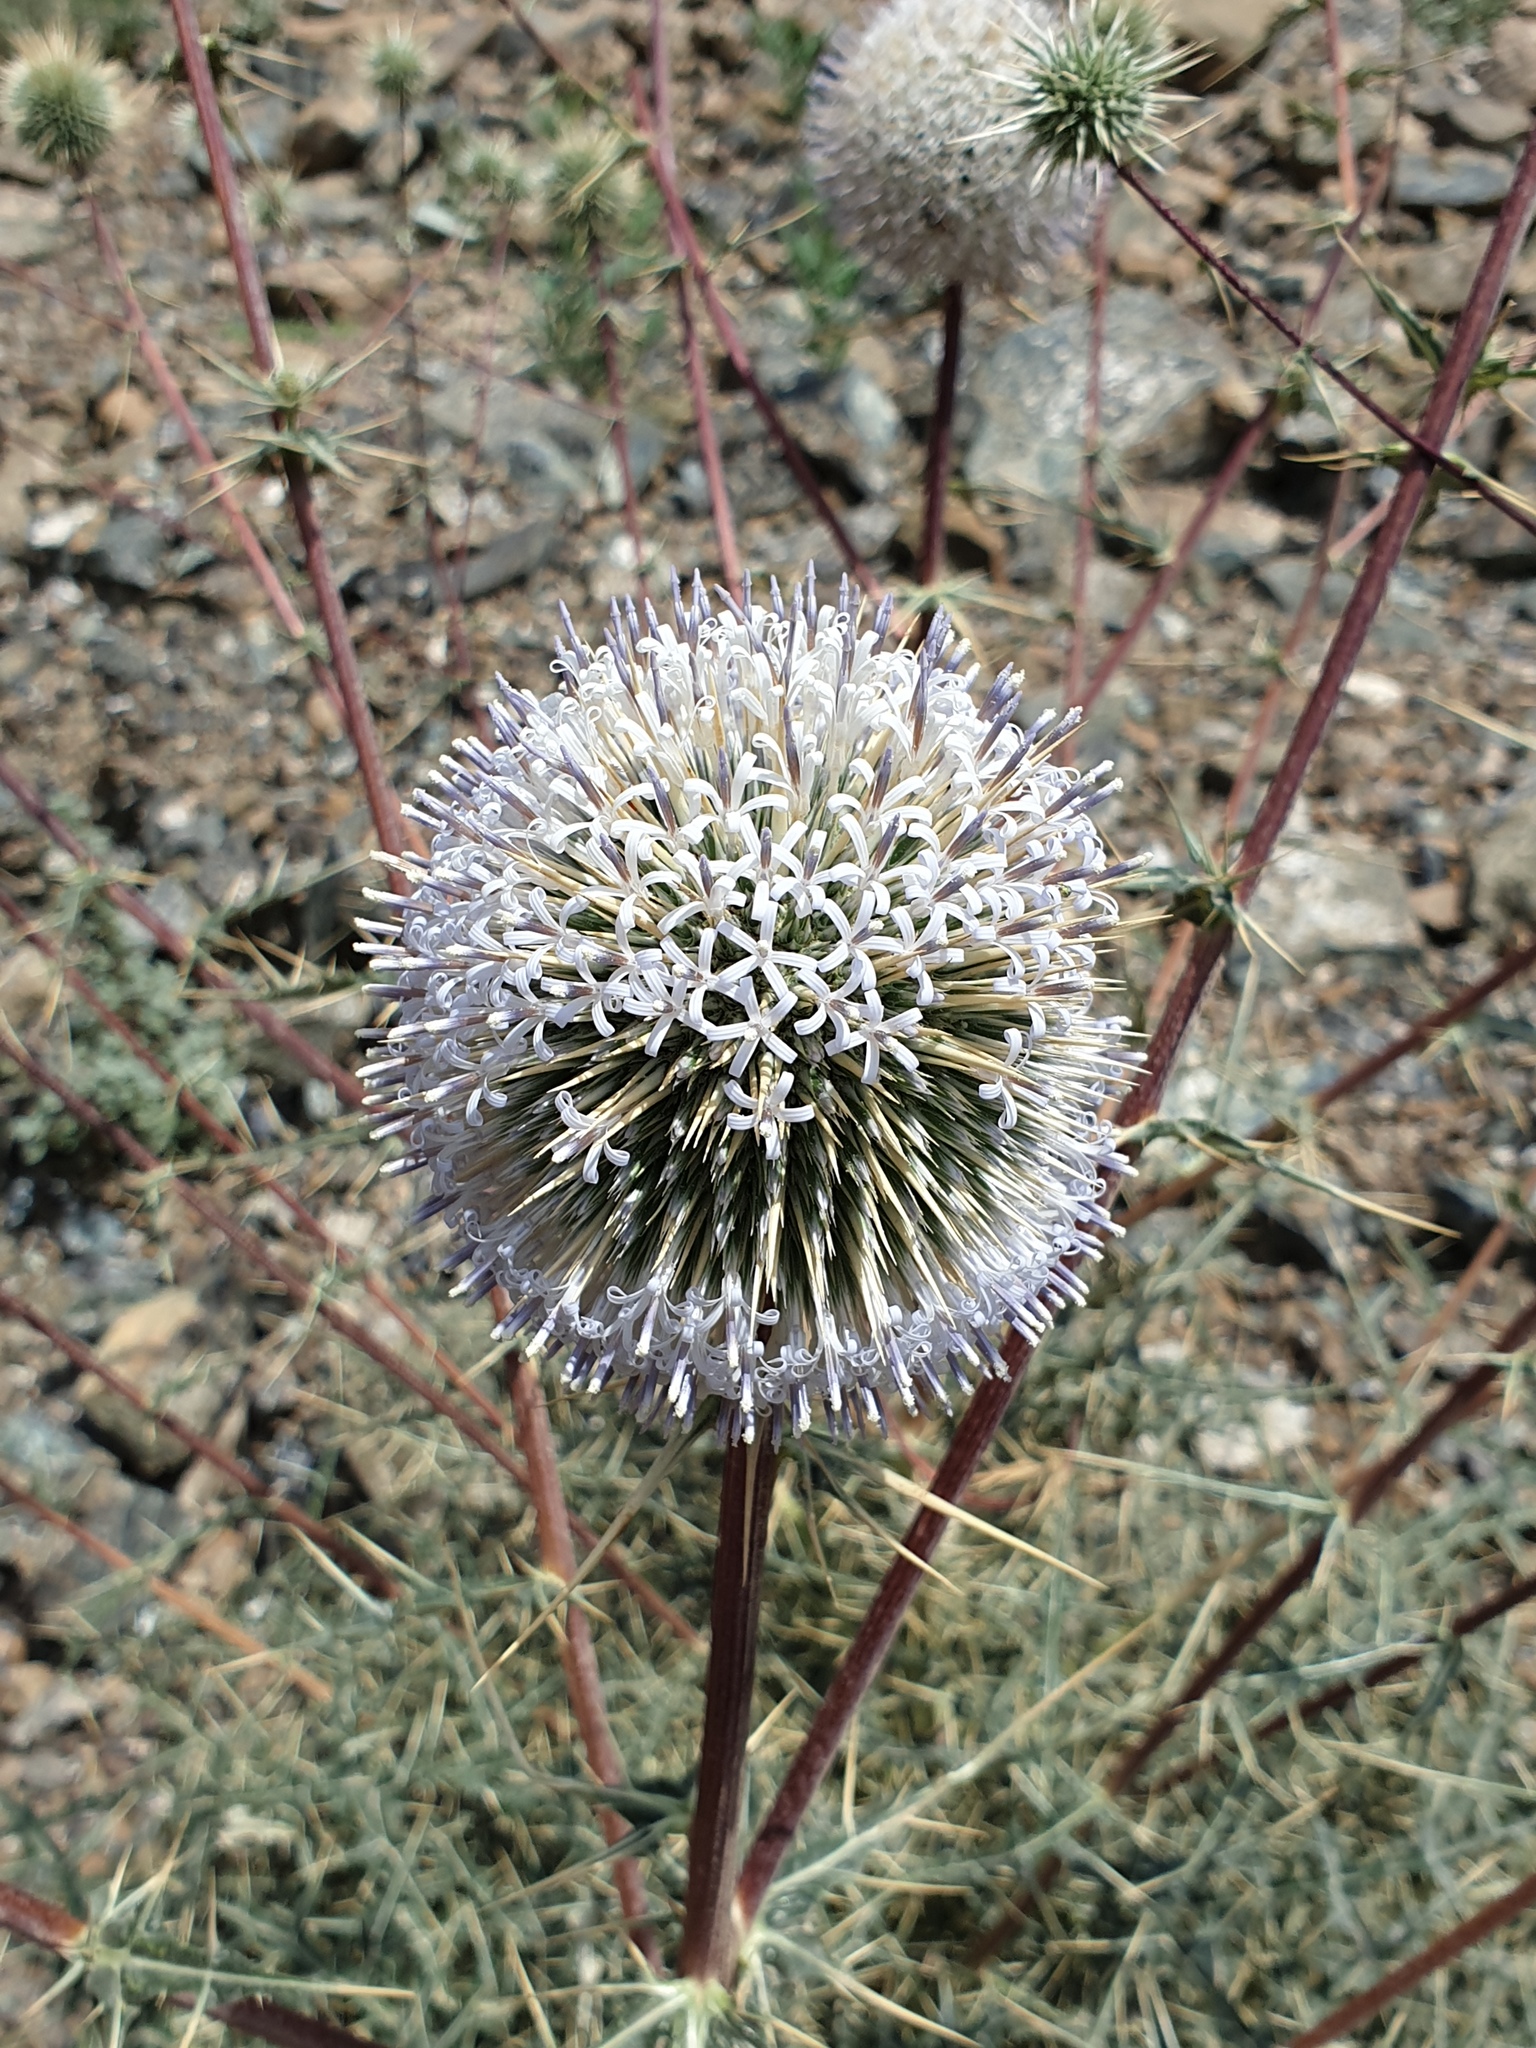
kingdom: Plantae
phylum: Tracheophyta
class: Magnoliopsida
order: Asterales
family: Asteraceae
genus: Echinops
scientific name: Echinops erinaceus
